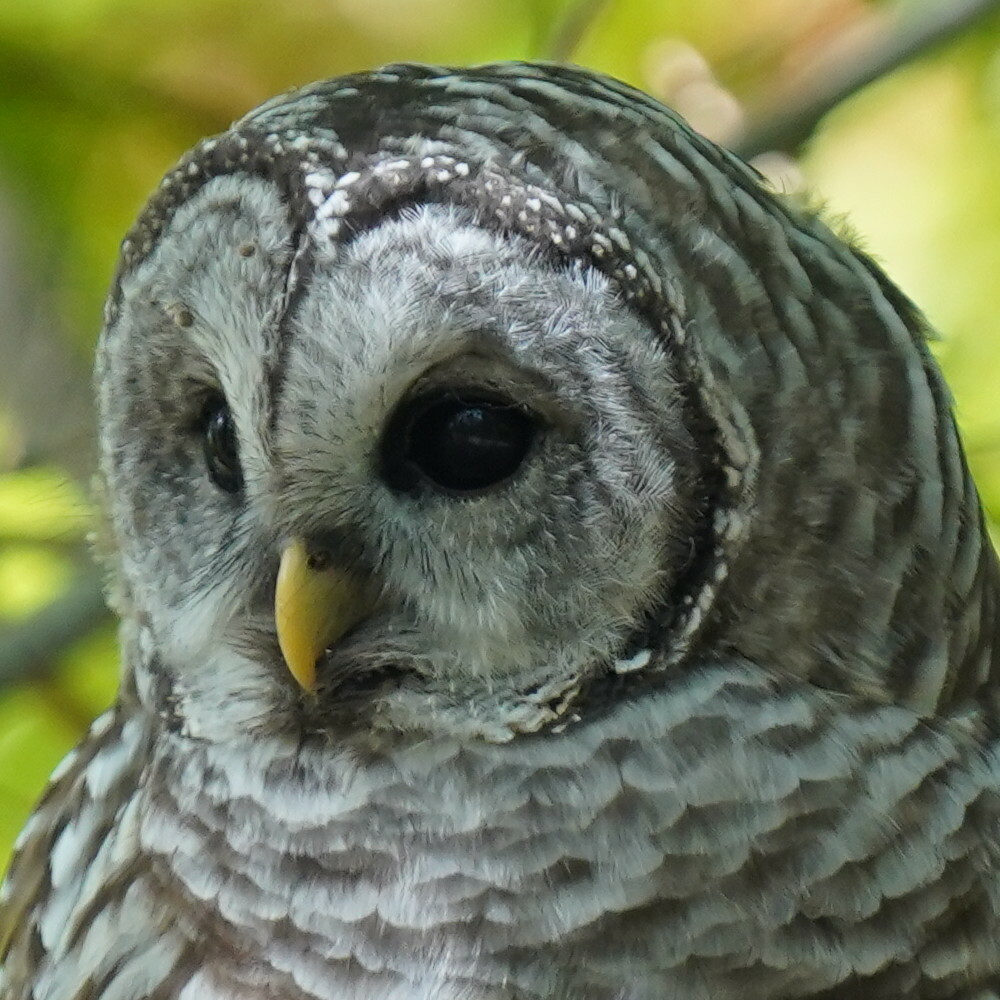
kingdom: Animalia
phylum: Chordata
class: Aves
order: Strigiformes
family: Strigidae
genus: Strix
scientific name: Strix varia
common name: Barred owl
